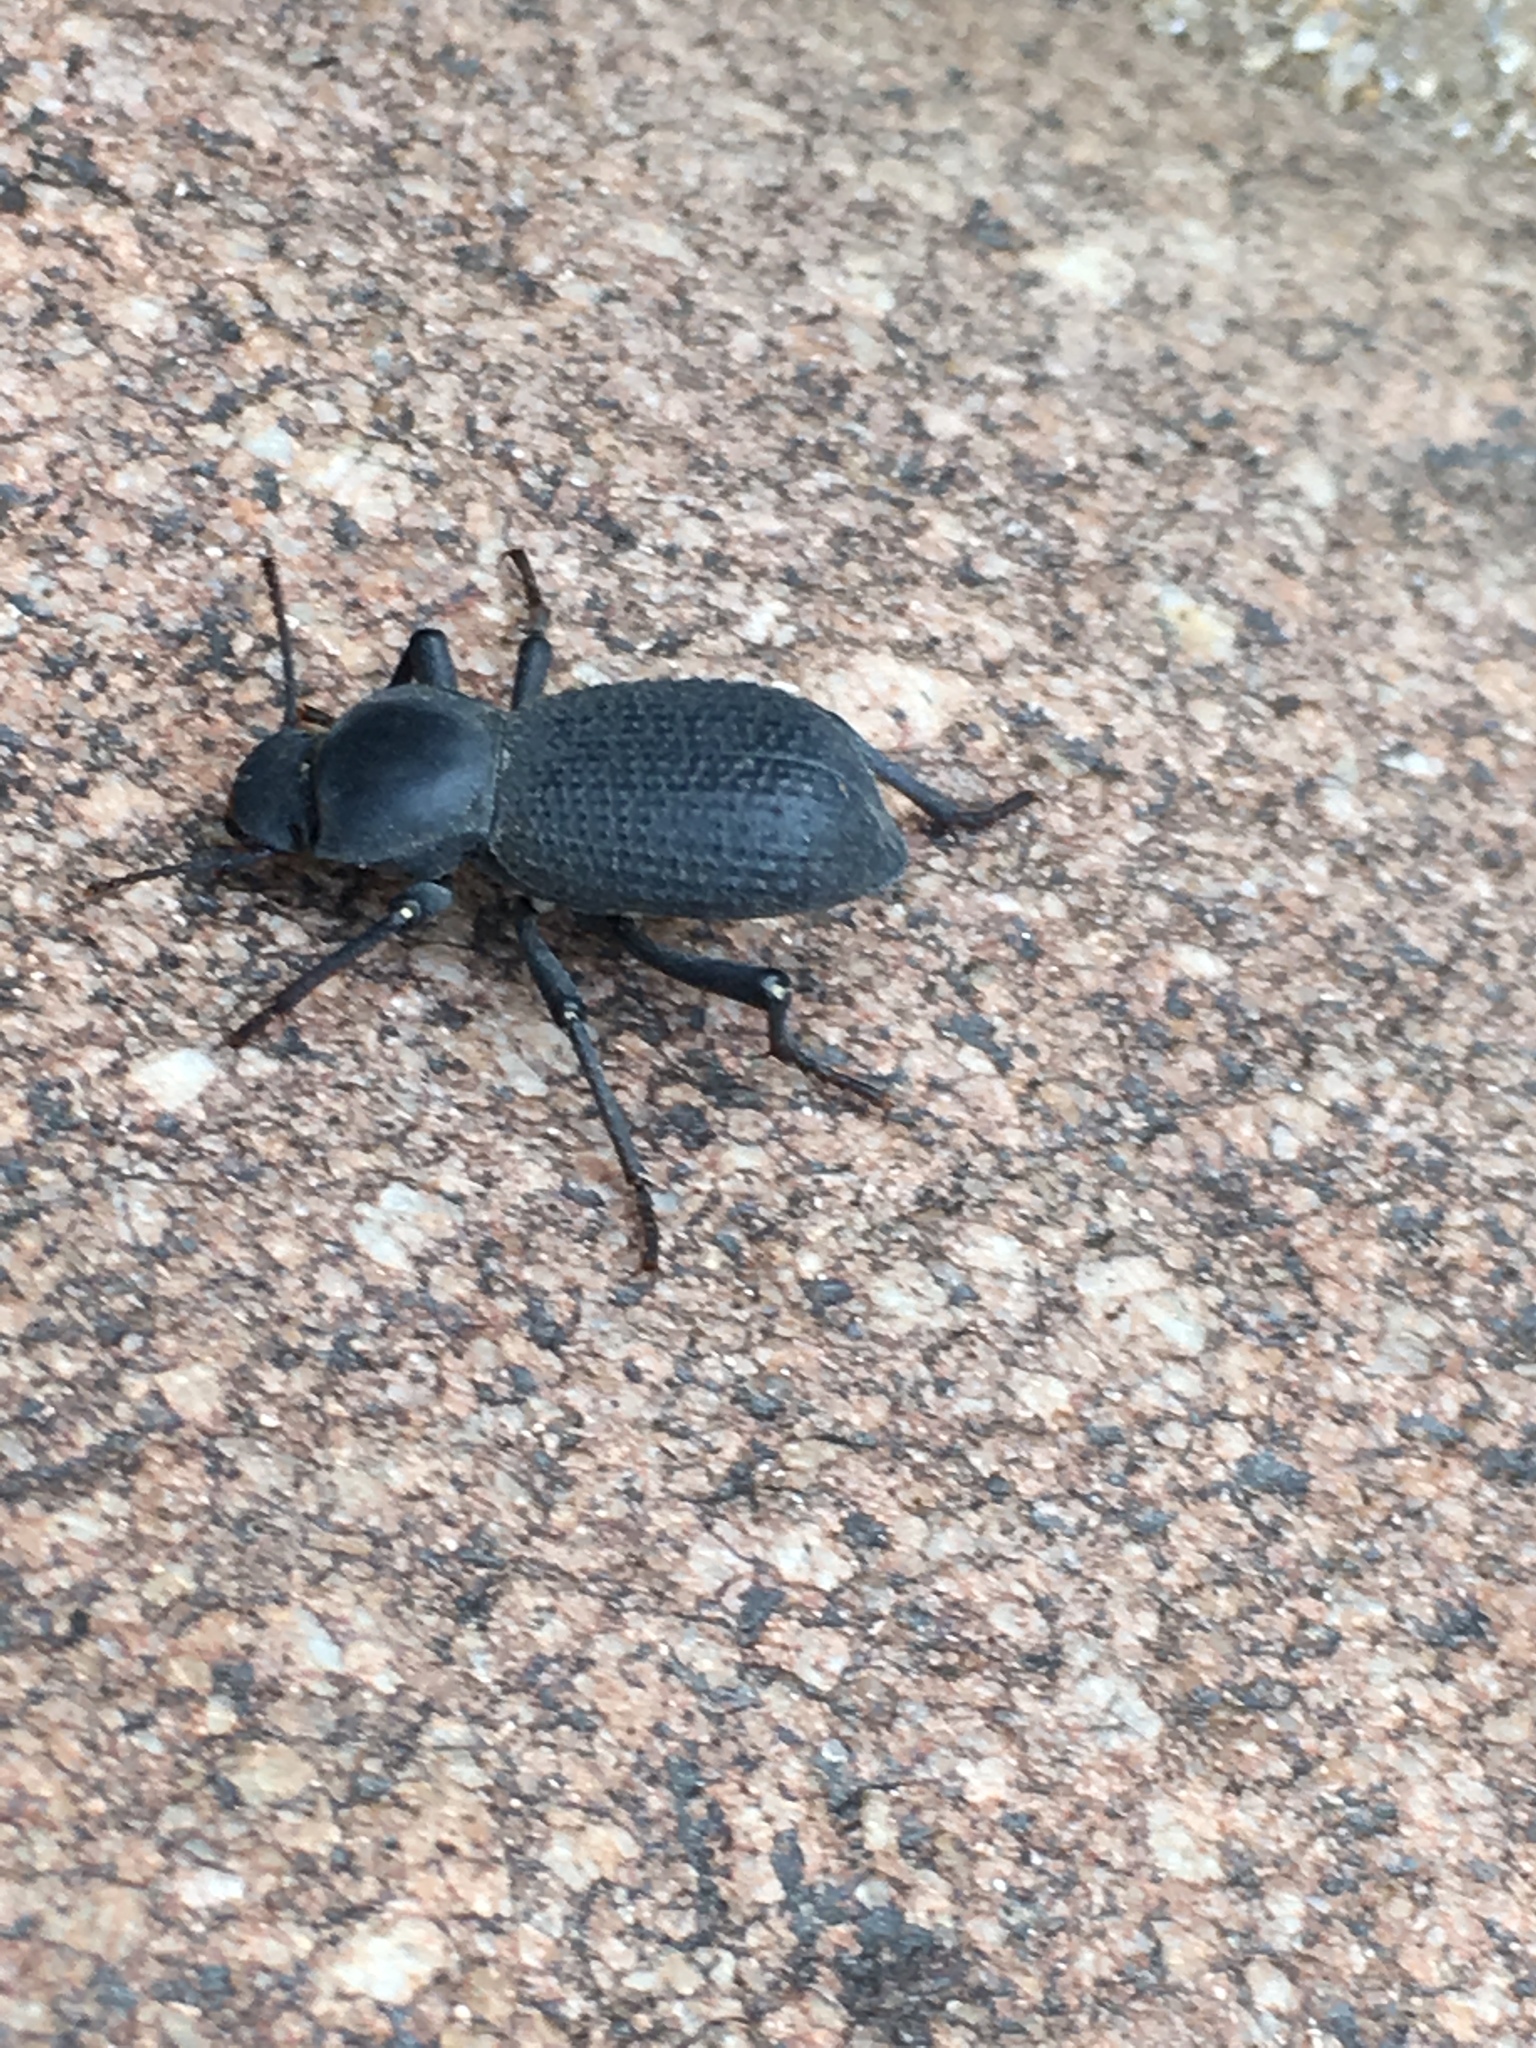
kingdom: Animalia
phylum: Arthropoda
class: Insecta
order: Coleoptera
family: Tenebrionidae
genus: Cryptoglossa
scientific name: Cryptoglossa muricata
